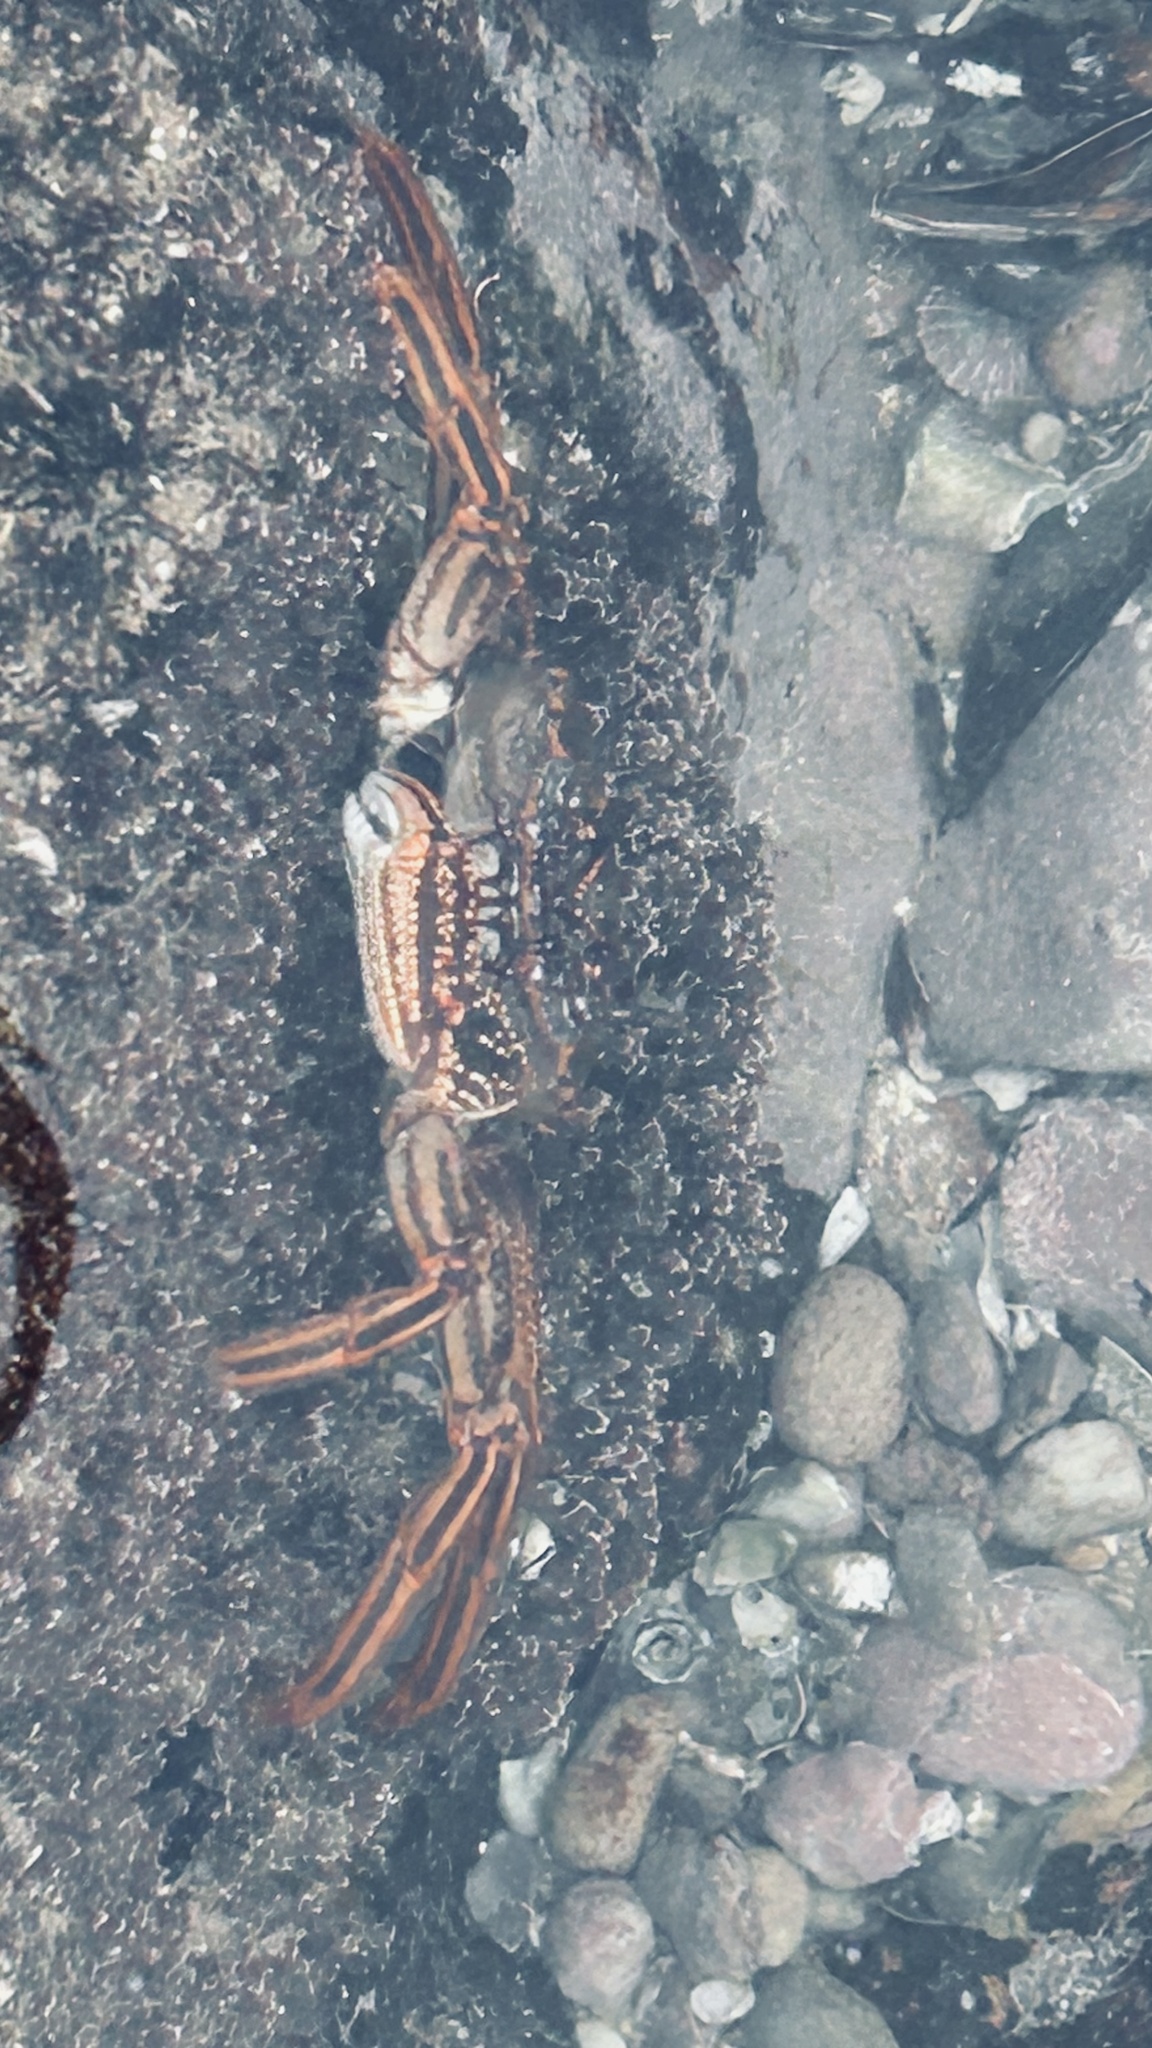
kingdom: Animalia
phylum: Arthropoda
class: Malacostraca
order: Decapoda
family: Plagusiidae
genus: Guinusia
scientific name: Guinusia chabrus
